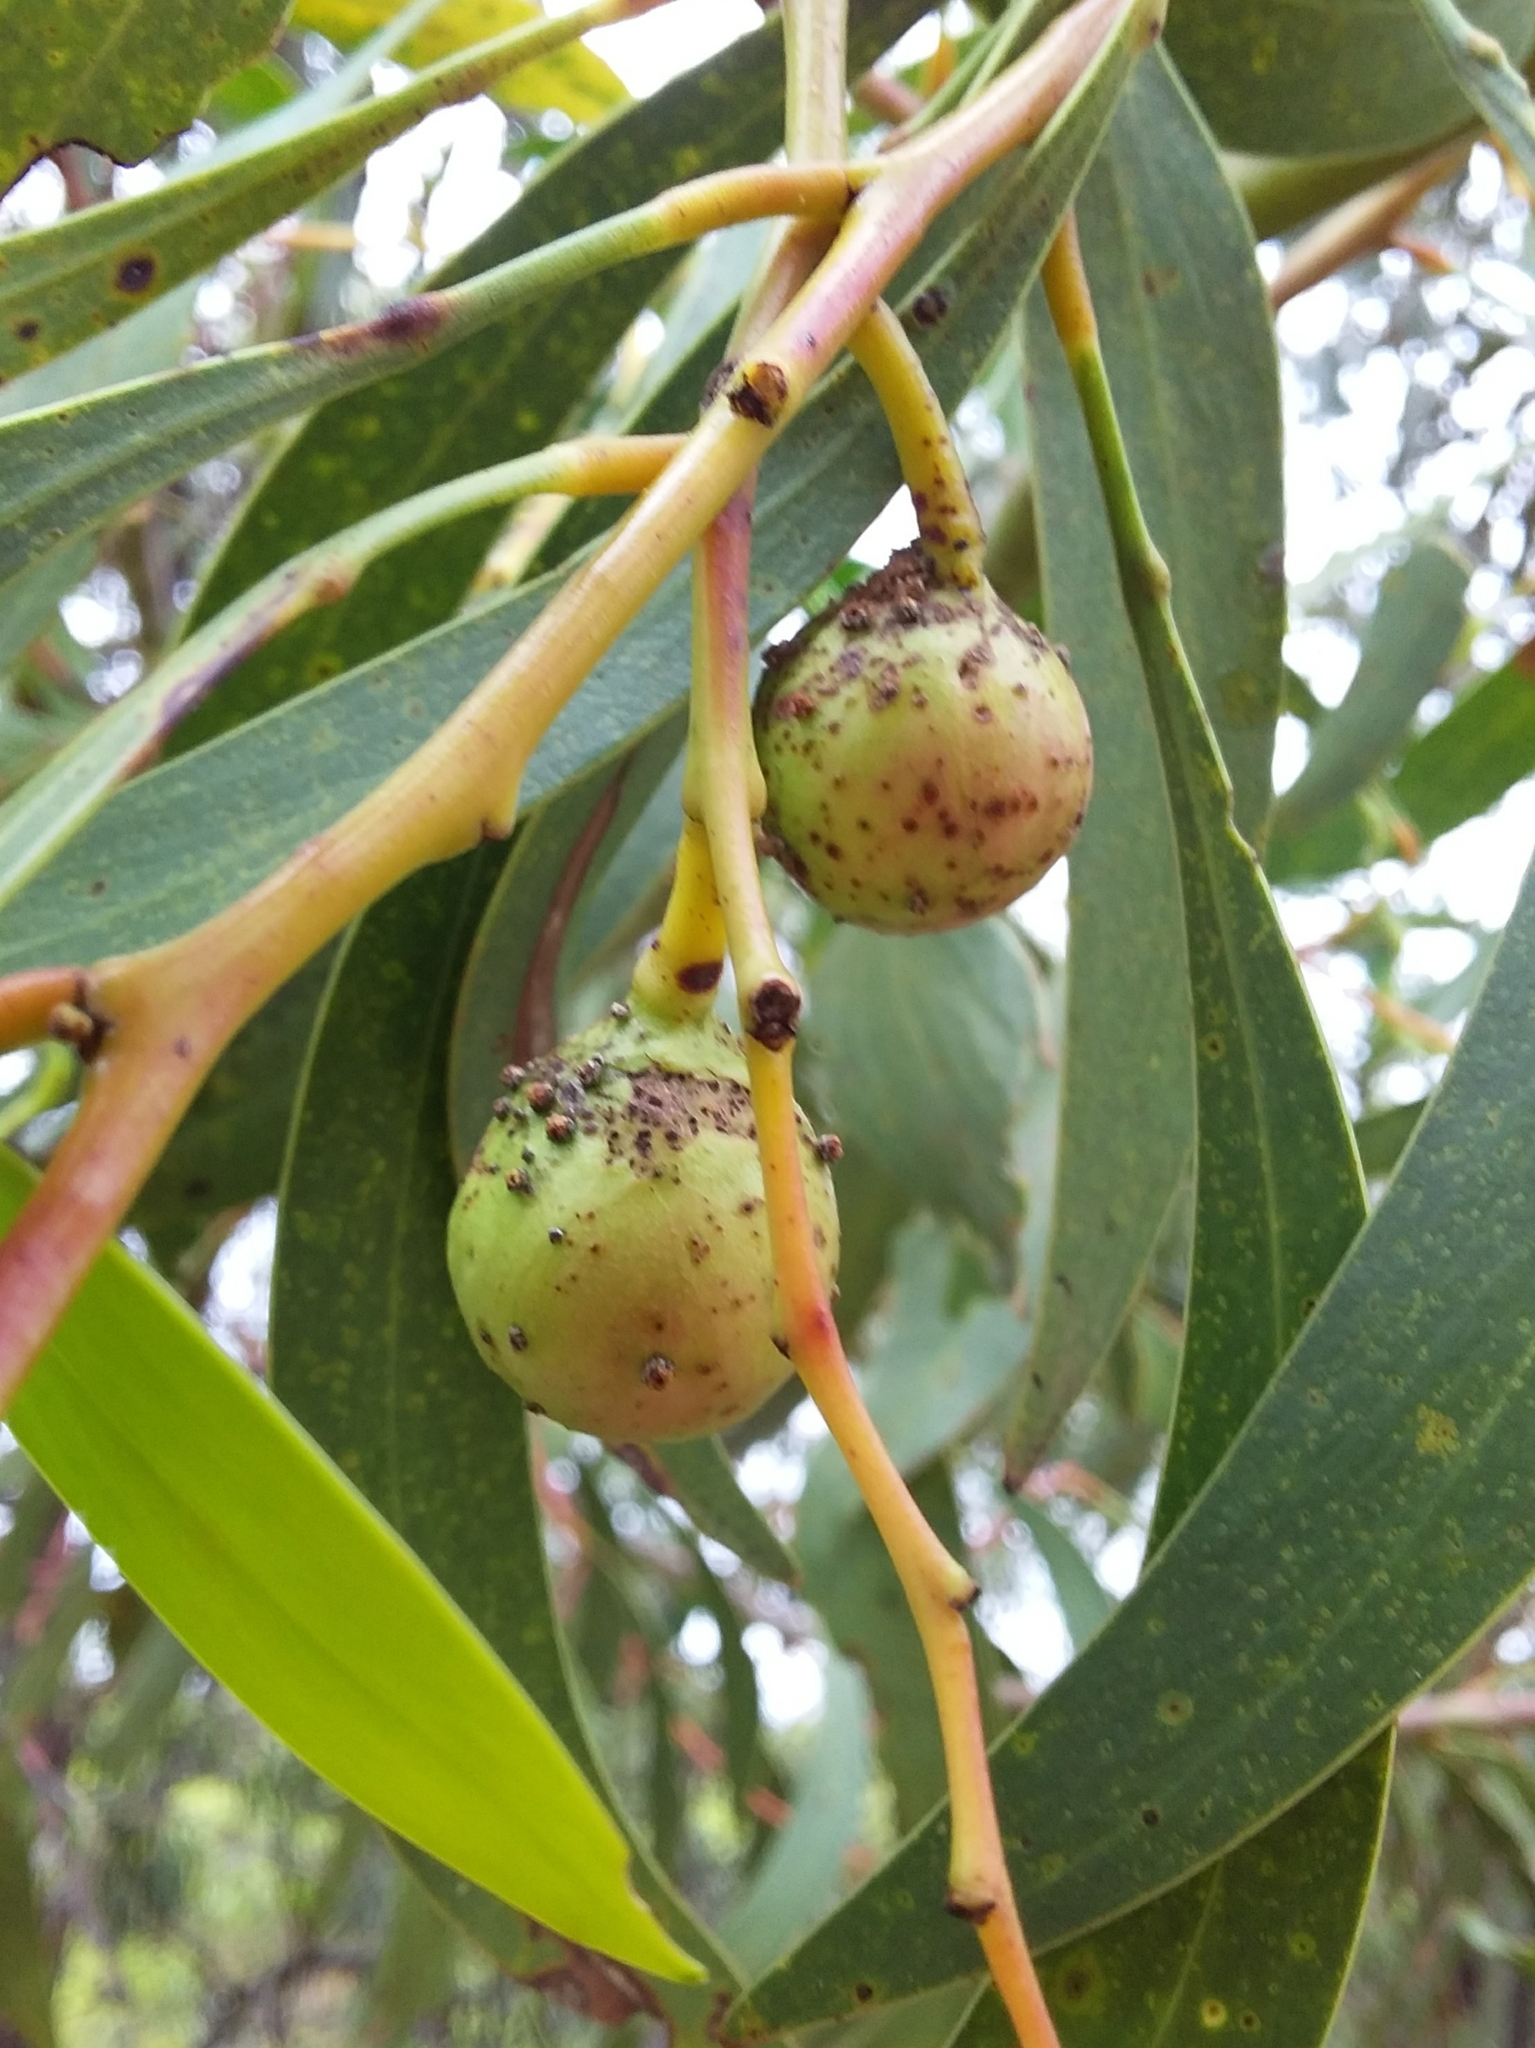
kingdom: Animalia
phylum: Arthropoda
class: Insecta
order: Hymenoptera
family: Pteromalidae
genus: Trichilogaster
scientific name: Trichilogaster signiventris
